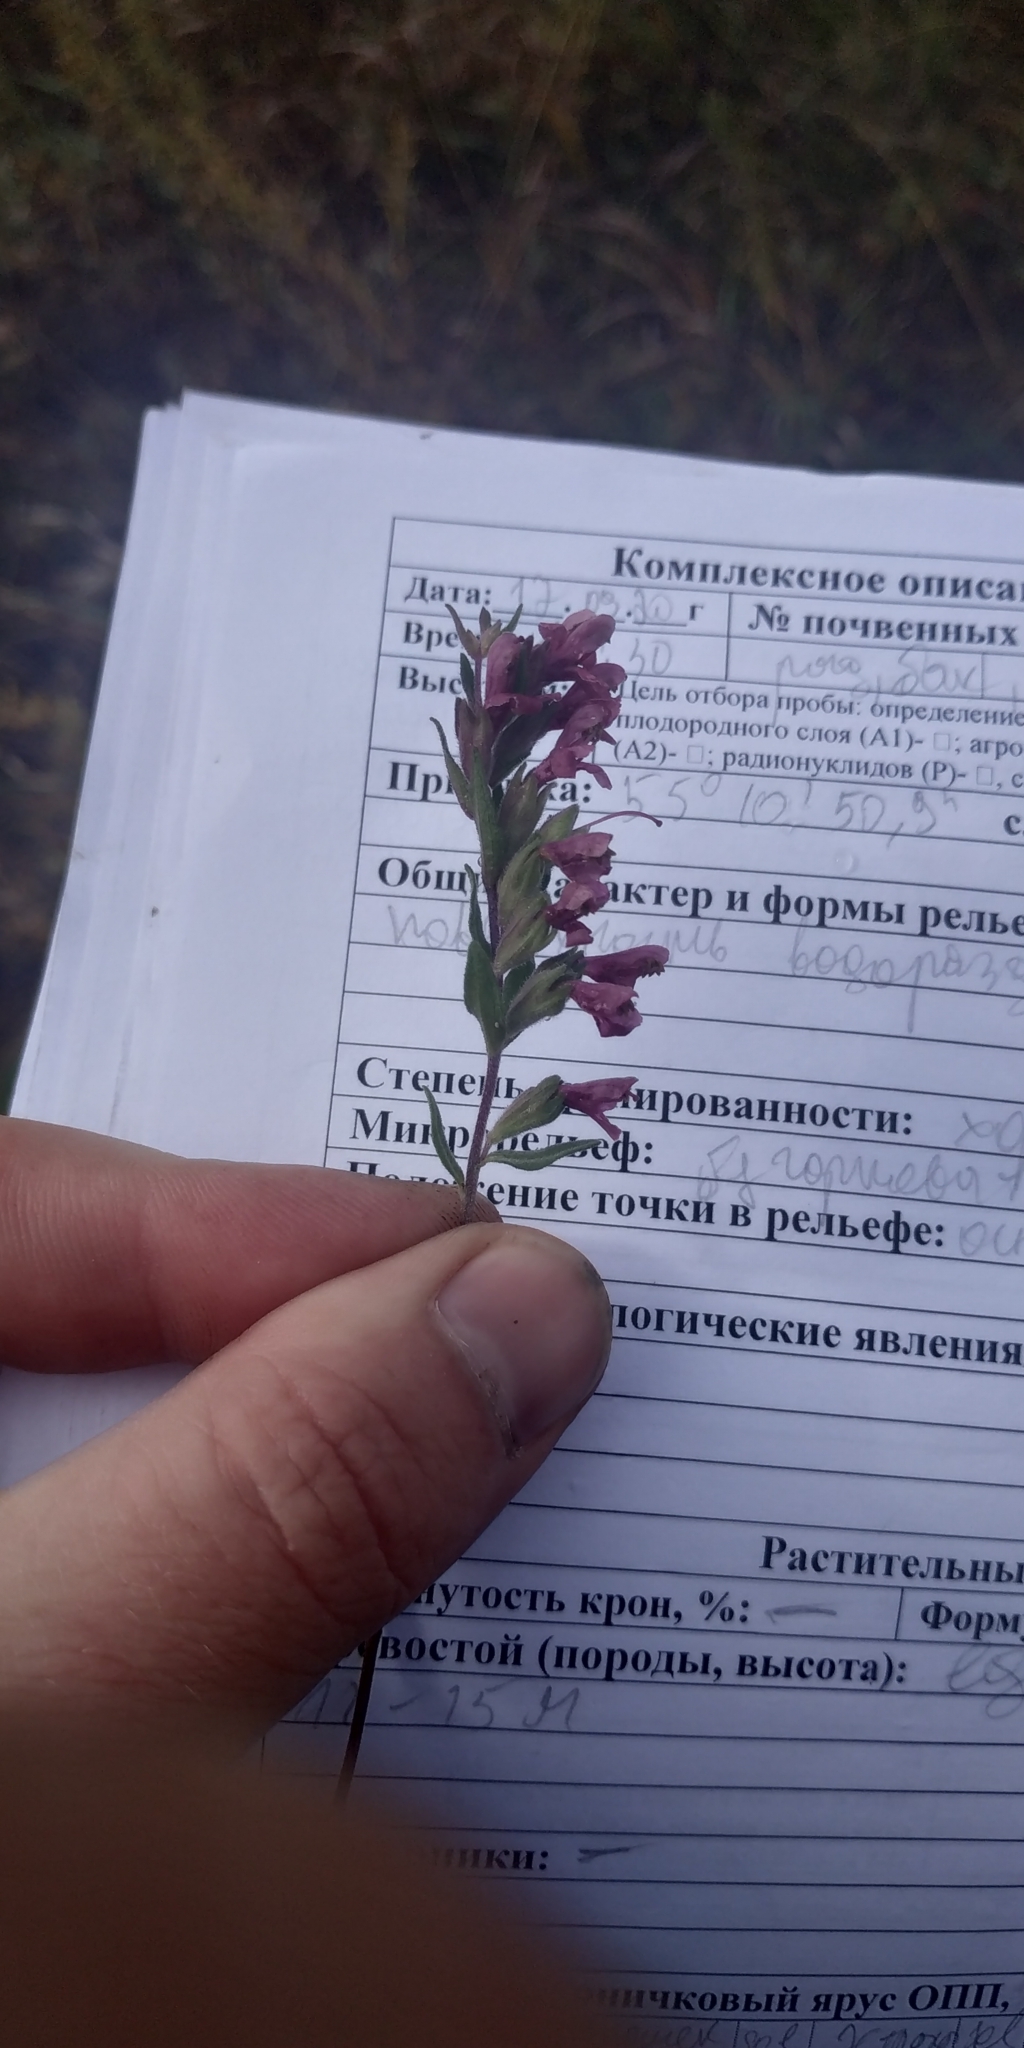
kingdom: Plantae
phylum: Tracheophyta
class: Magnoliopsida
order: Lamiales
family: Orobanchaceae
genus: Odontites
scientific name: Odontites vulgaris
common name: Broomrape
